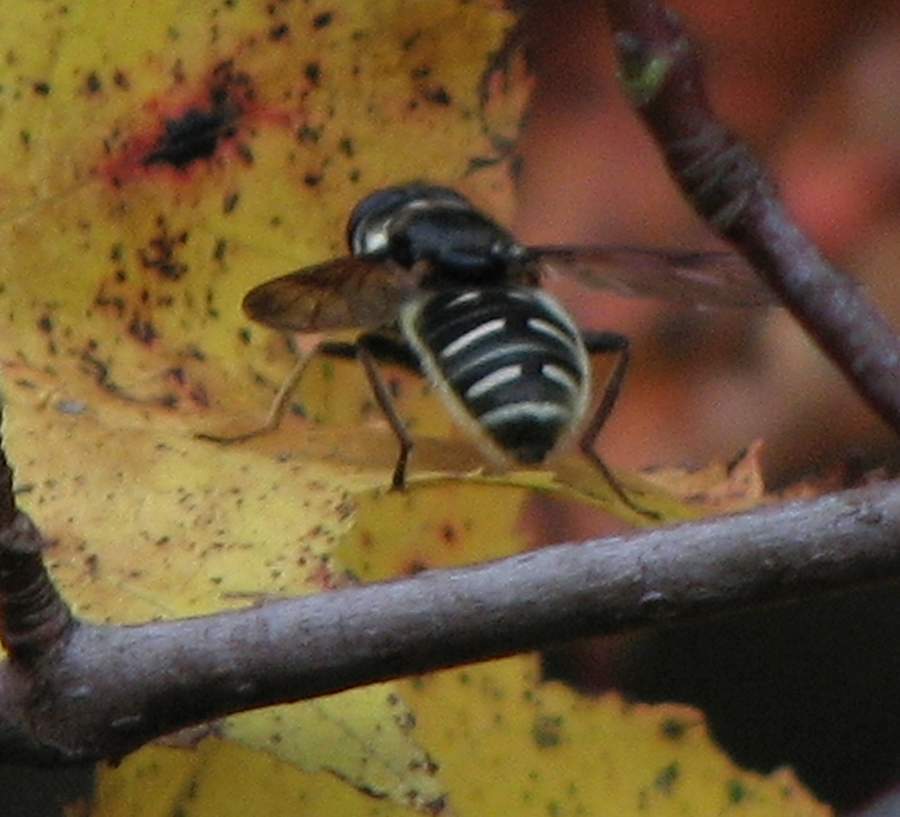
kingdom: Animalia
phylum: Arthropoda
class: Insecta
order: Diptera
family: Syrphidae
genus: Sericomyia
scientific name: Sericomyia militaris
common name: Narrow-banded pond fly
